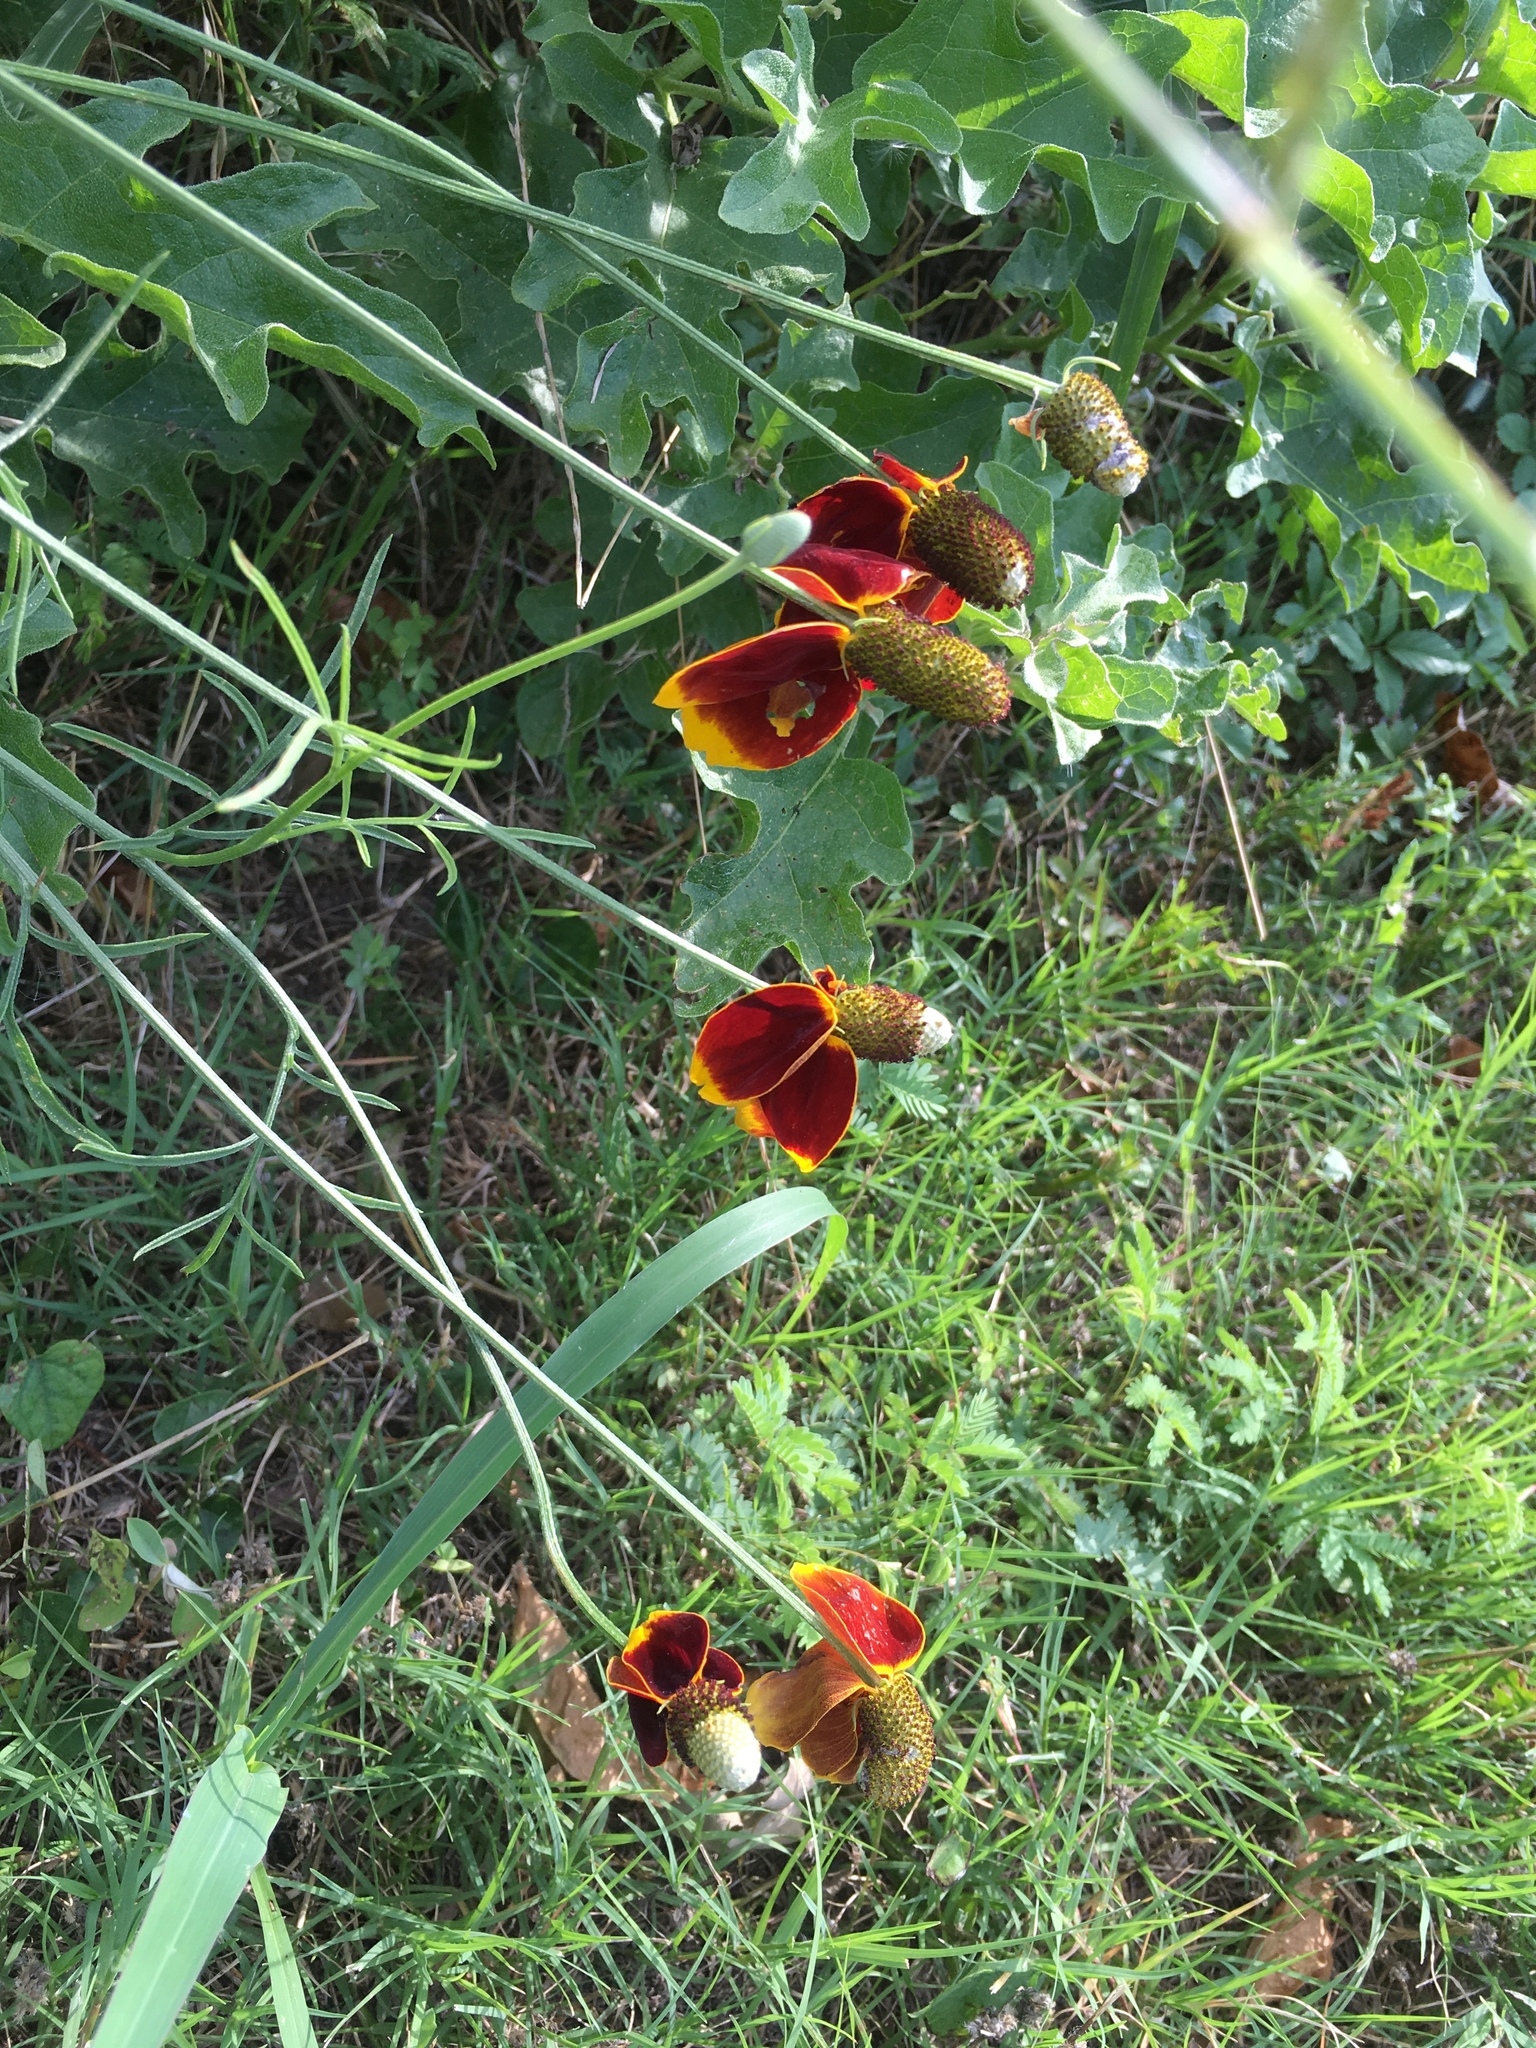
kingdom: Plantae
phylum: Tracheophyta
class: Magnoliopsida
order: Asterales
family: Asteraceae
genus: Ratibida
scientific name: Ratibida columnifera
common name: Prairie coneflower
